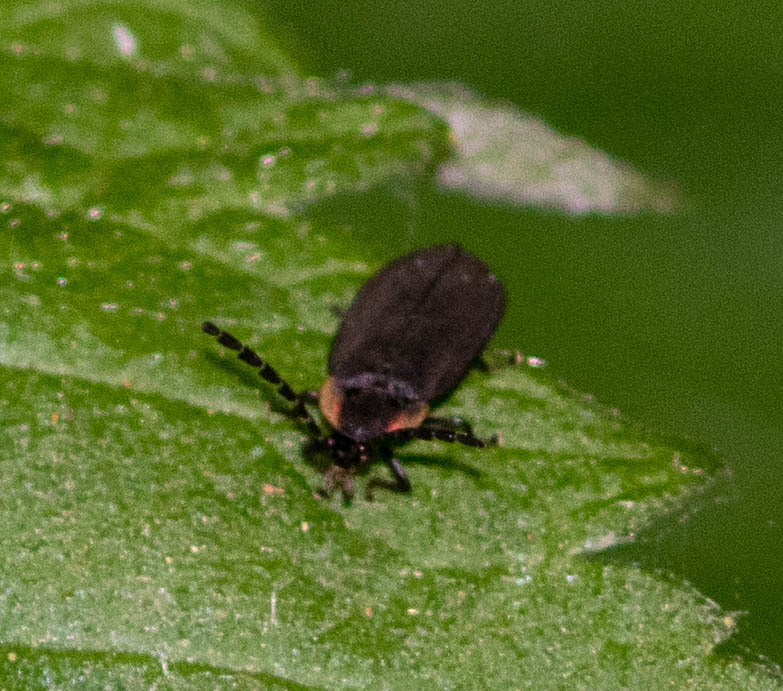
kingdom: Animalia
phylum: Arthropoda
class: Insecta
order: Coleoptera
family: Lampyridae
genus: Lucidota
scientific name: Lucidota atra
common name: Black firefly
